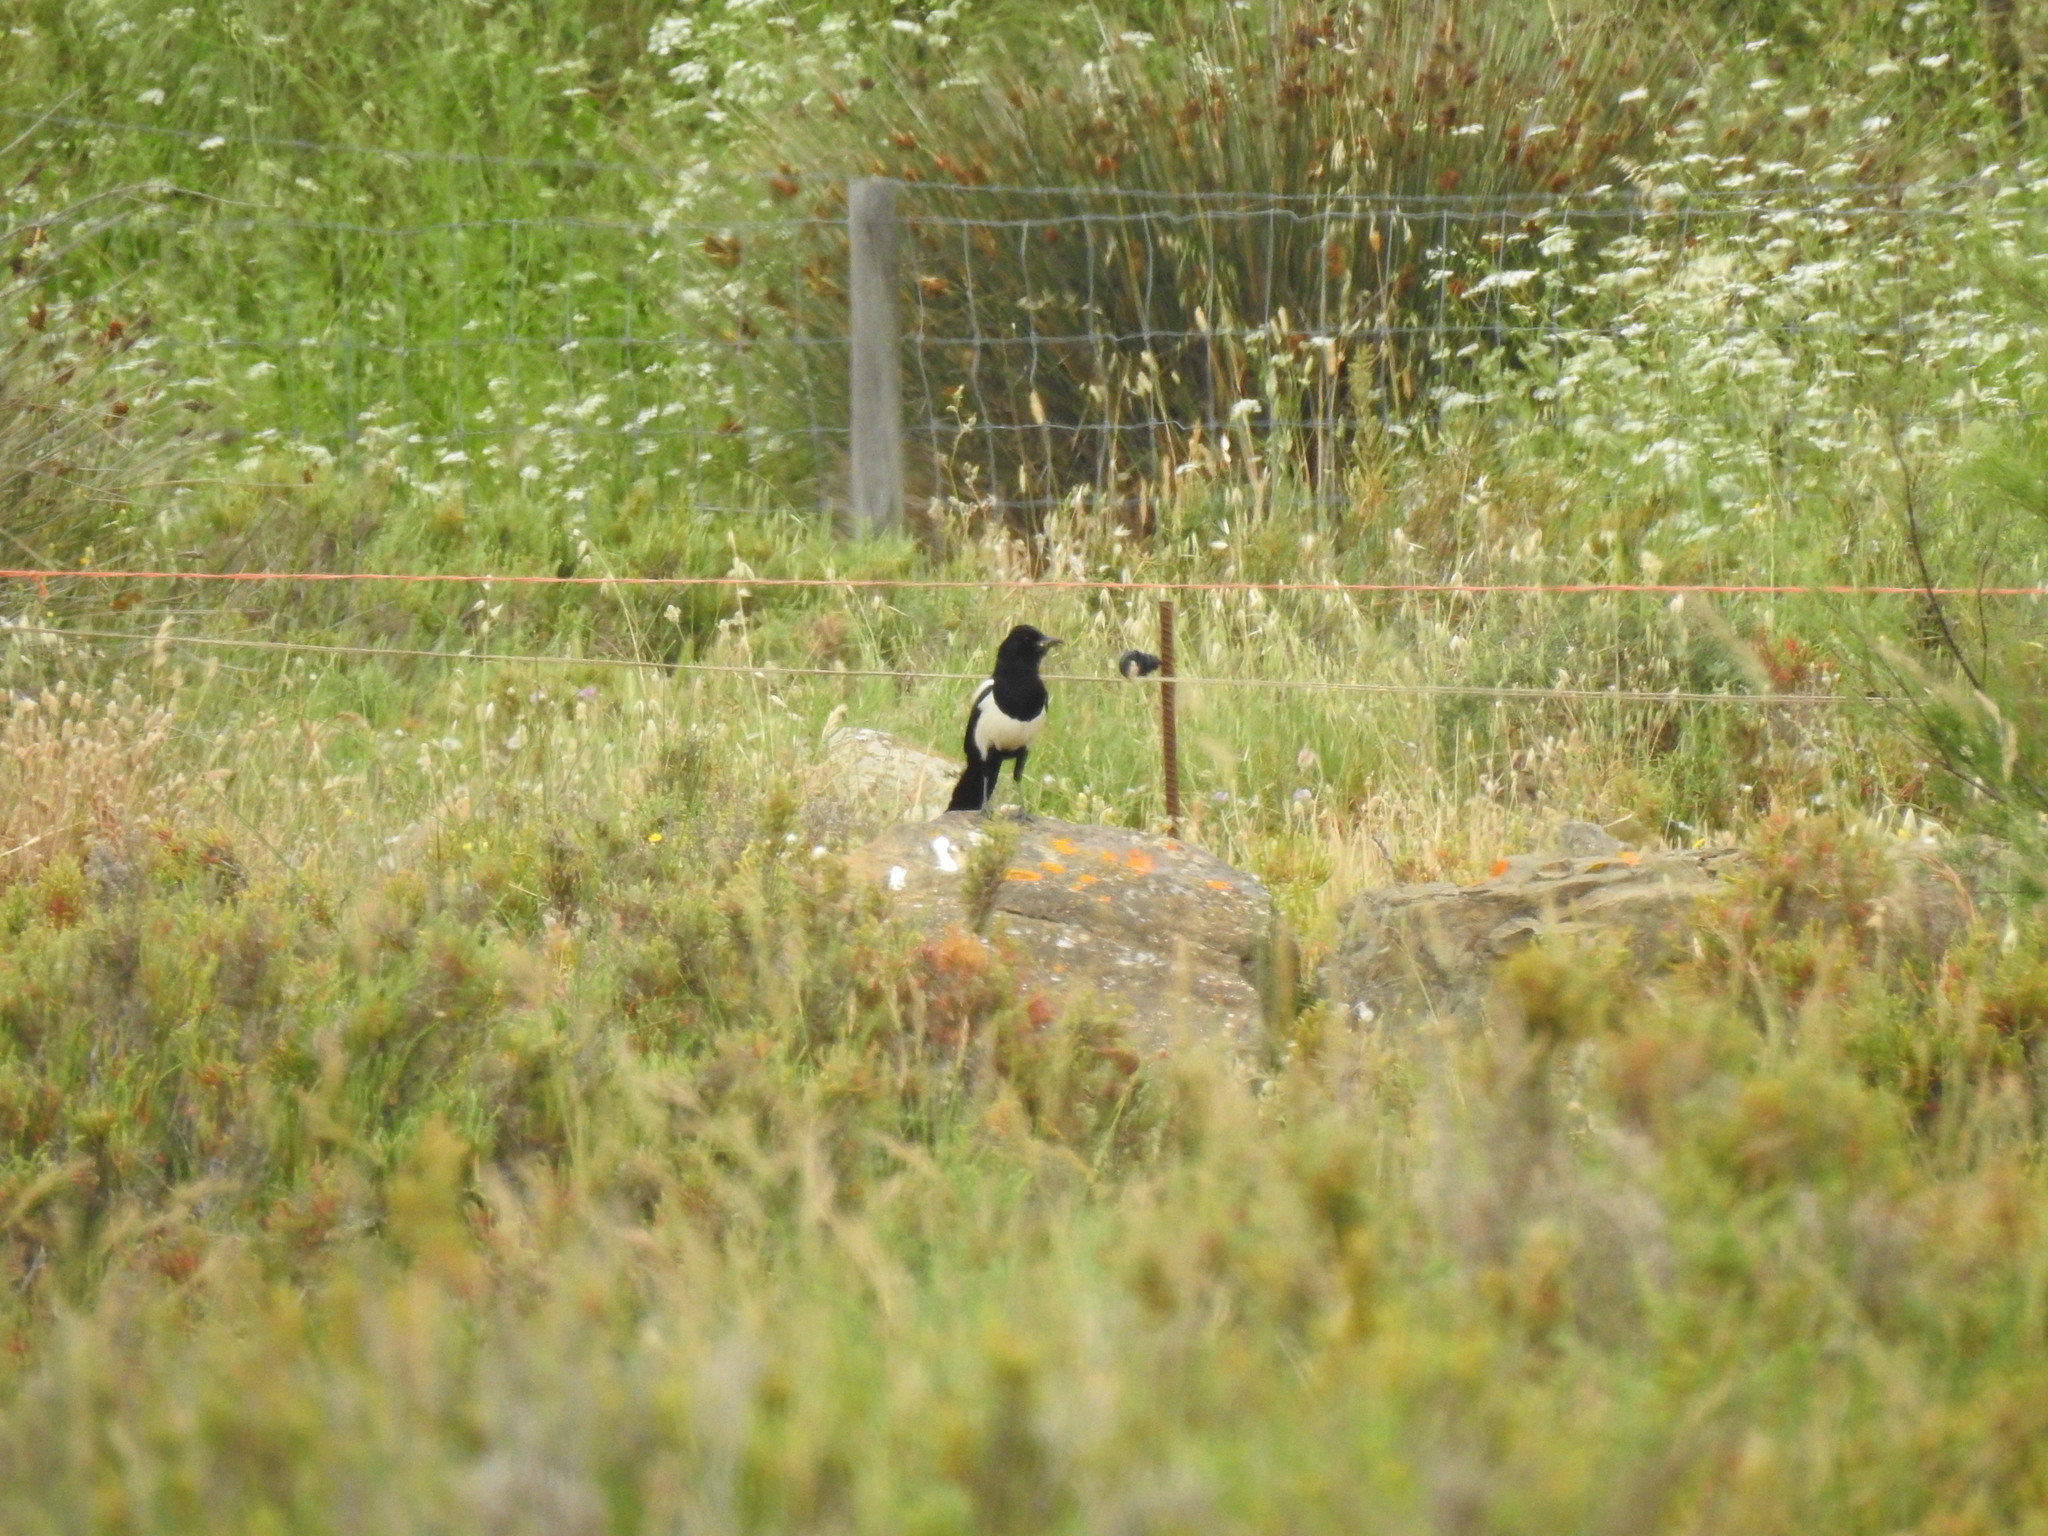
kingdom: Animalia
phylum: Chordata
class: Aves
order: Passeriformes
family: Corvidae
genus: Pica
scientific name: Pica pica
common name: Eurasian magpie
